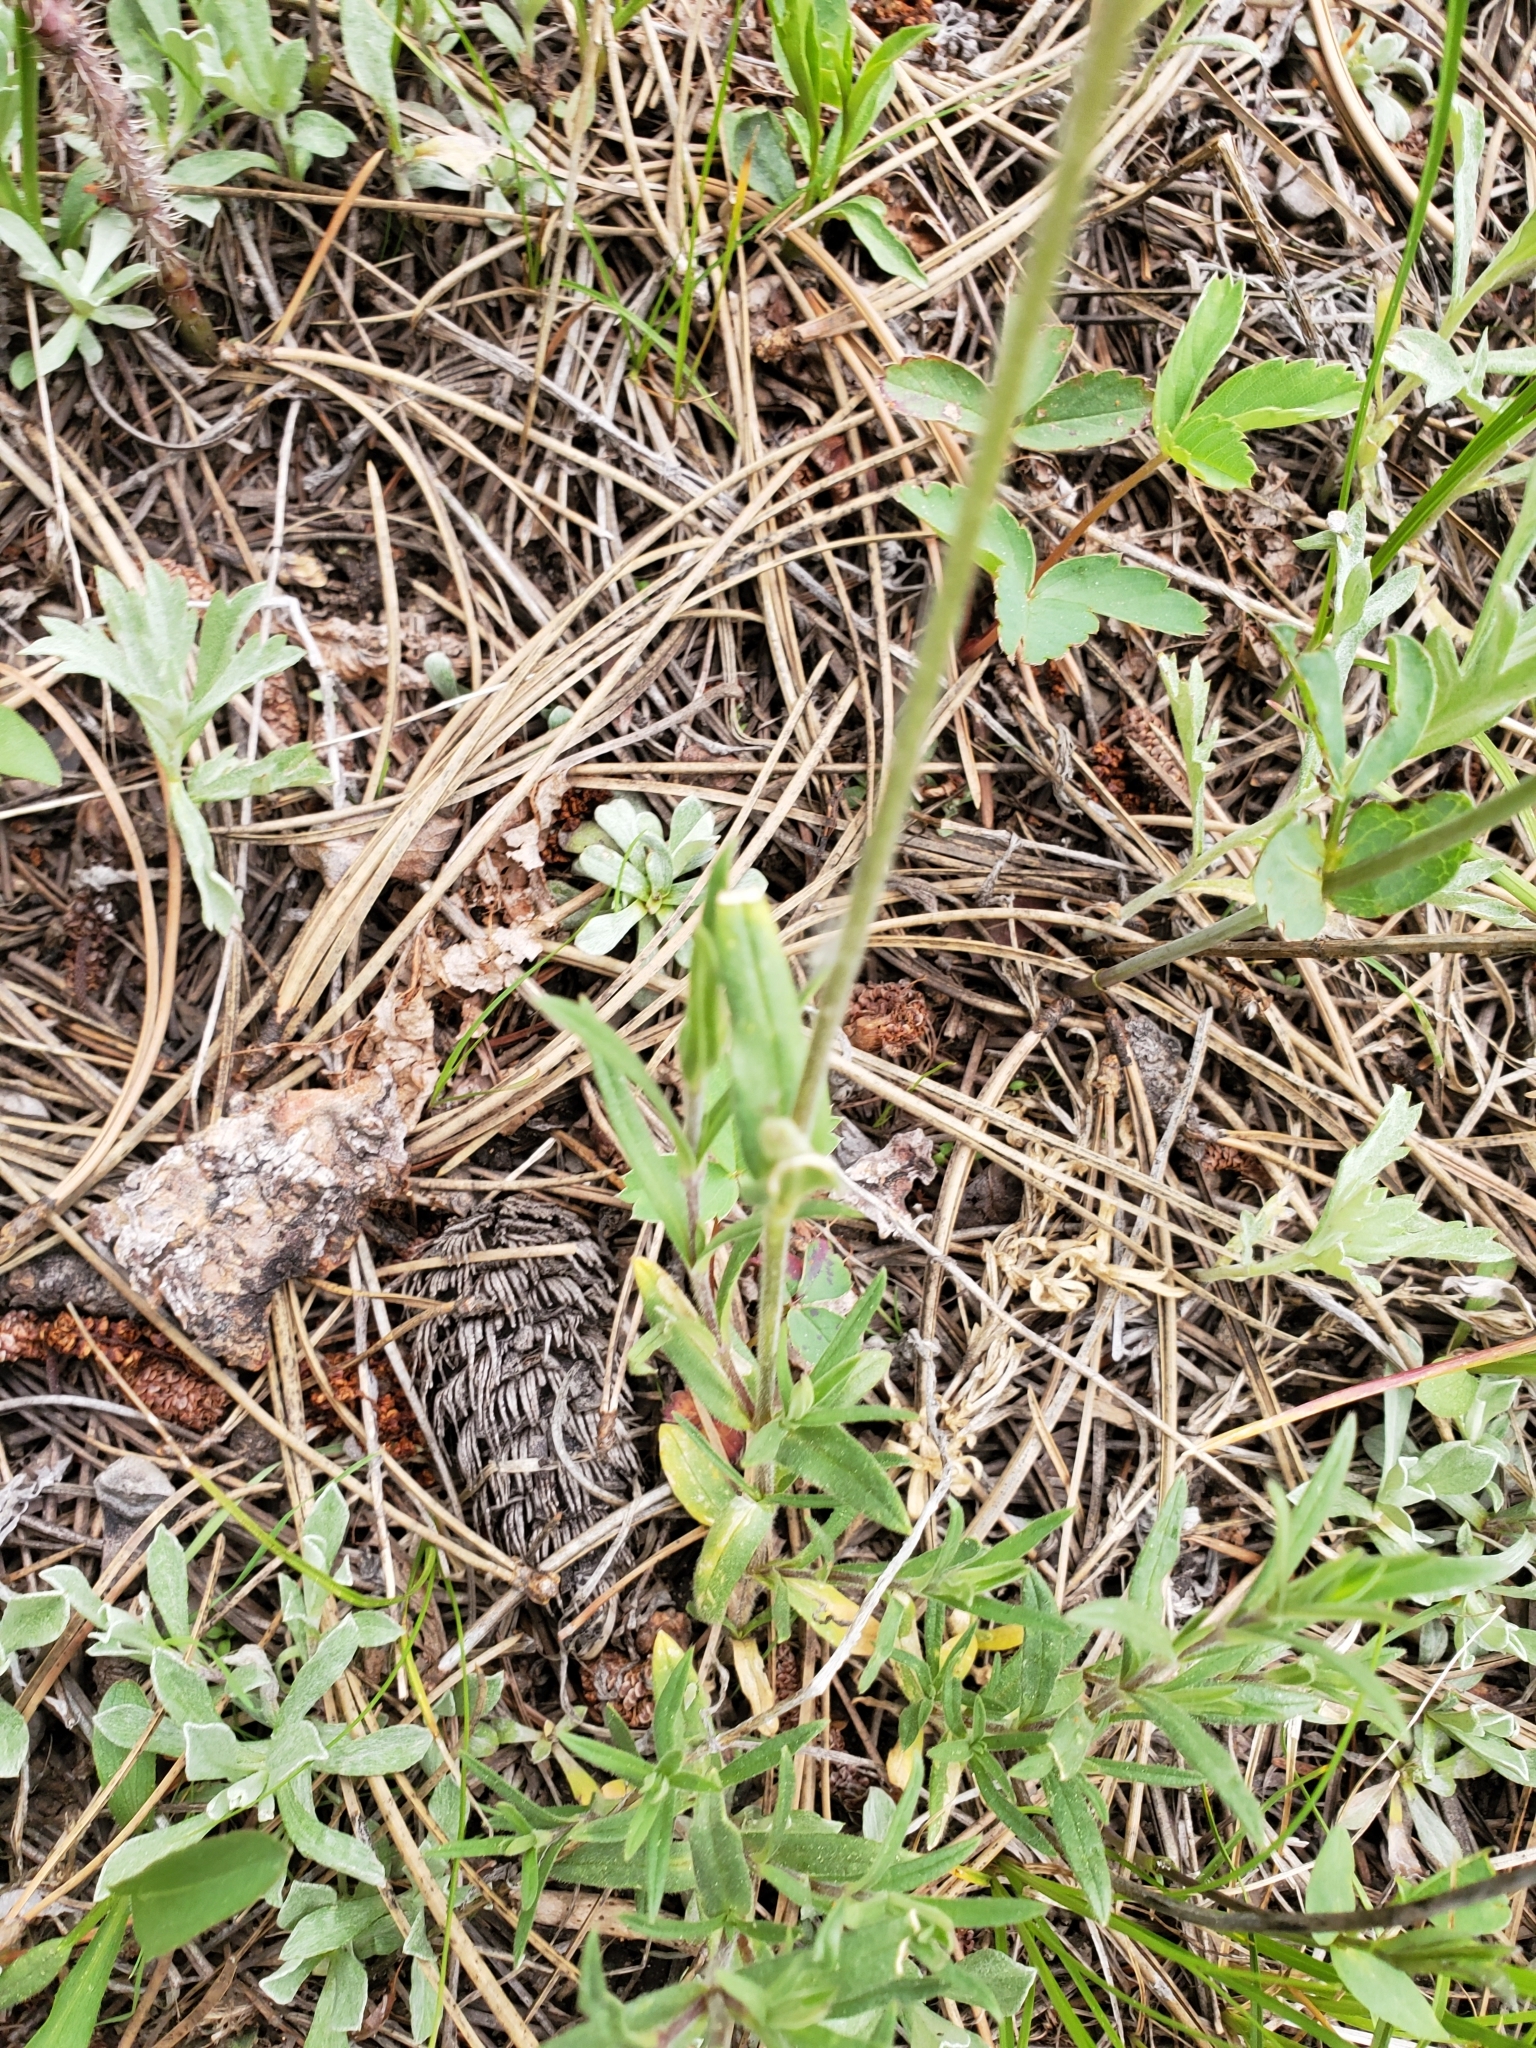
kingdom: Plantae
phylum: Tracheophyta
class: Magnoliopsida
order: Caryophyllales
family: Caryophyllaceae
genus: Cerastium
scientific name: Cerastium arvense
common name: Field mouse-ear
